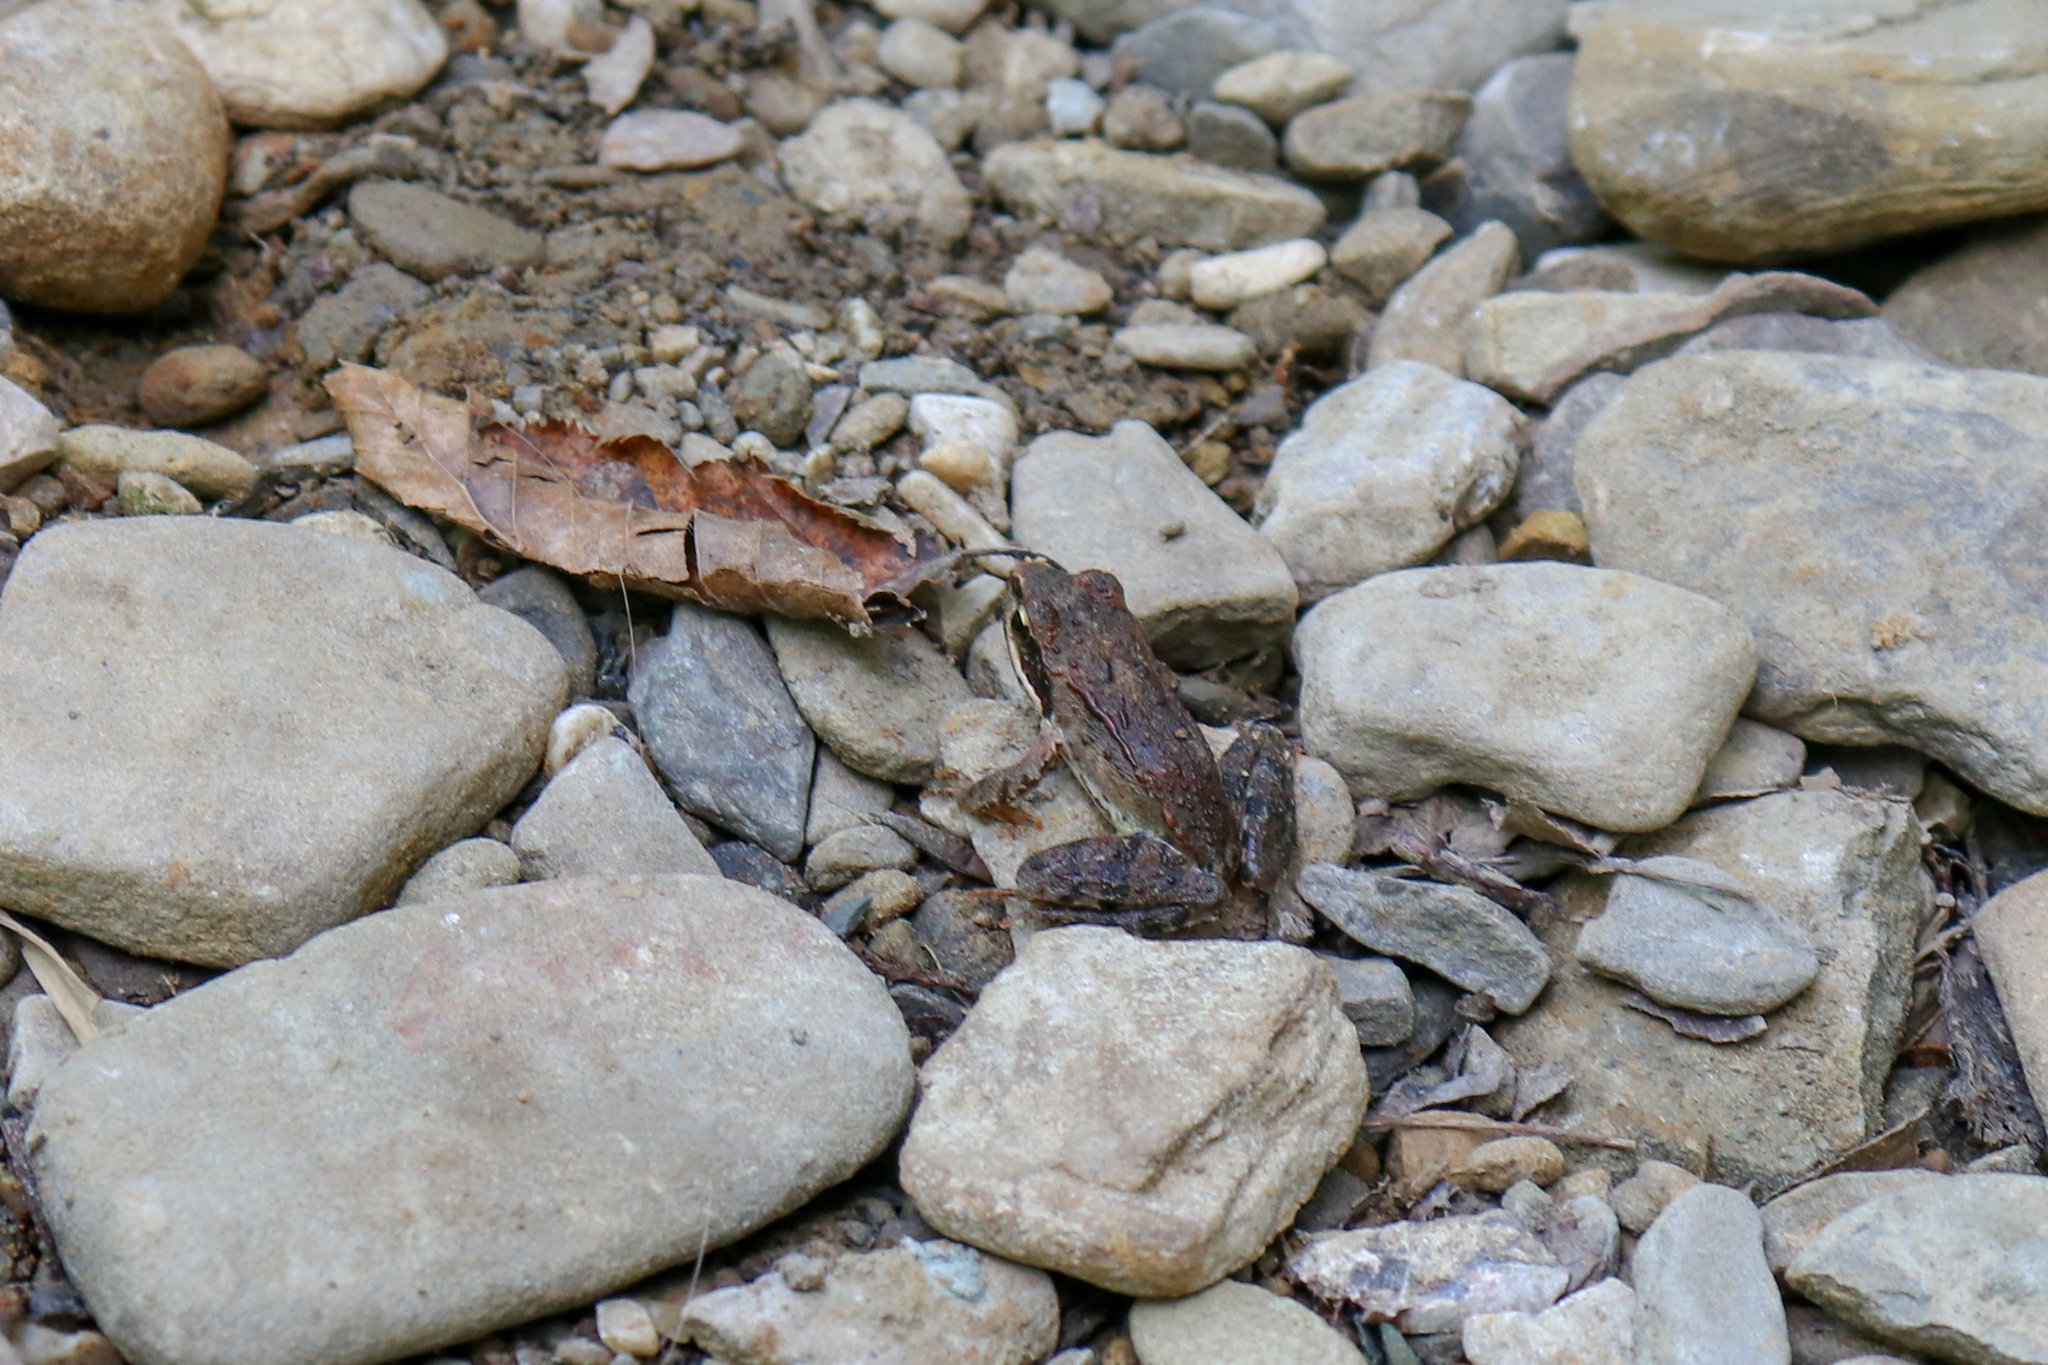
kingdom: Animalia
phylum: Chordata
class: Amphibia
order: Anura
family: Ranidae
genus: Rana
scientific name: Rana macrocnemis
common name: Banded frog
